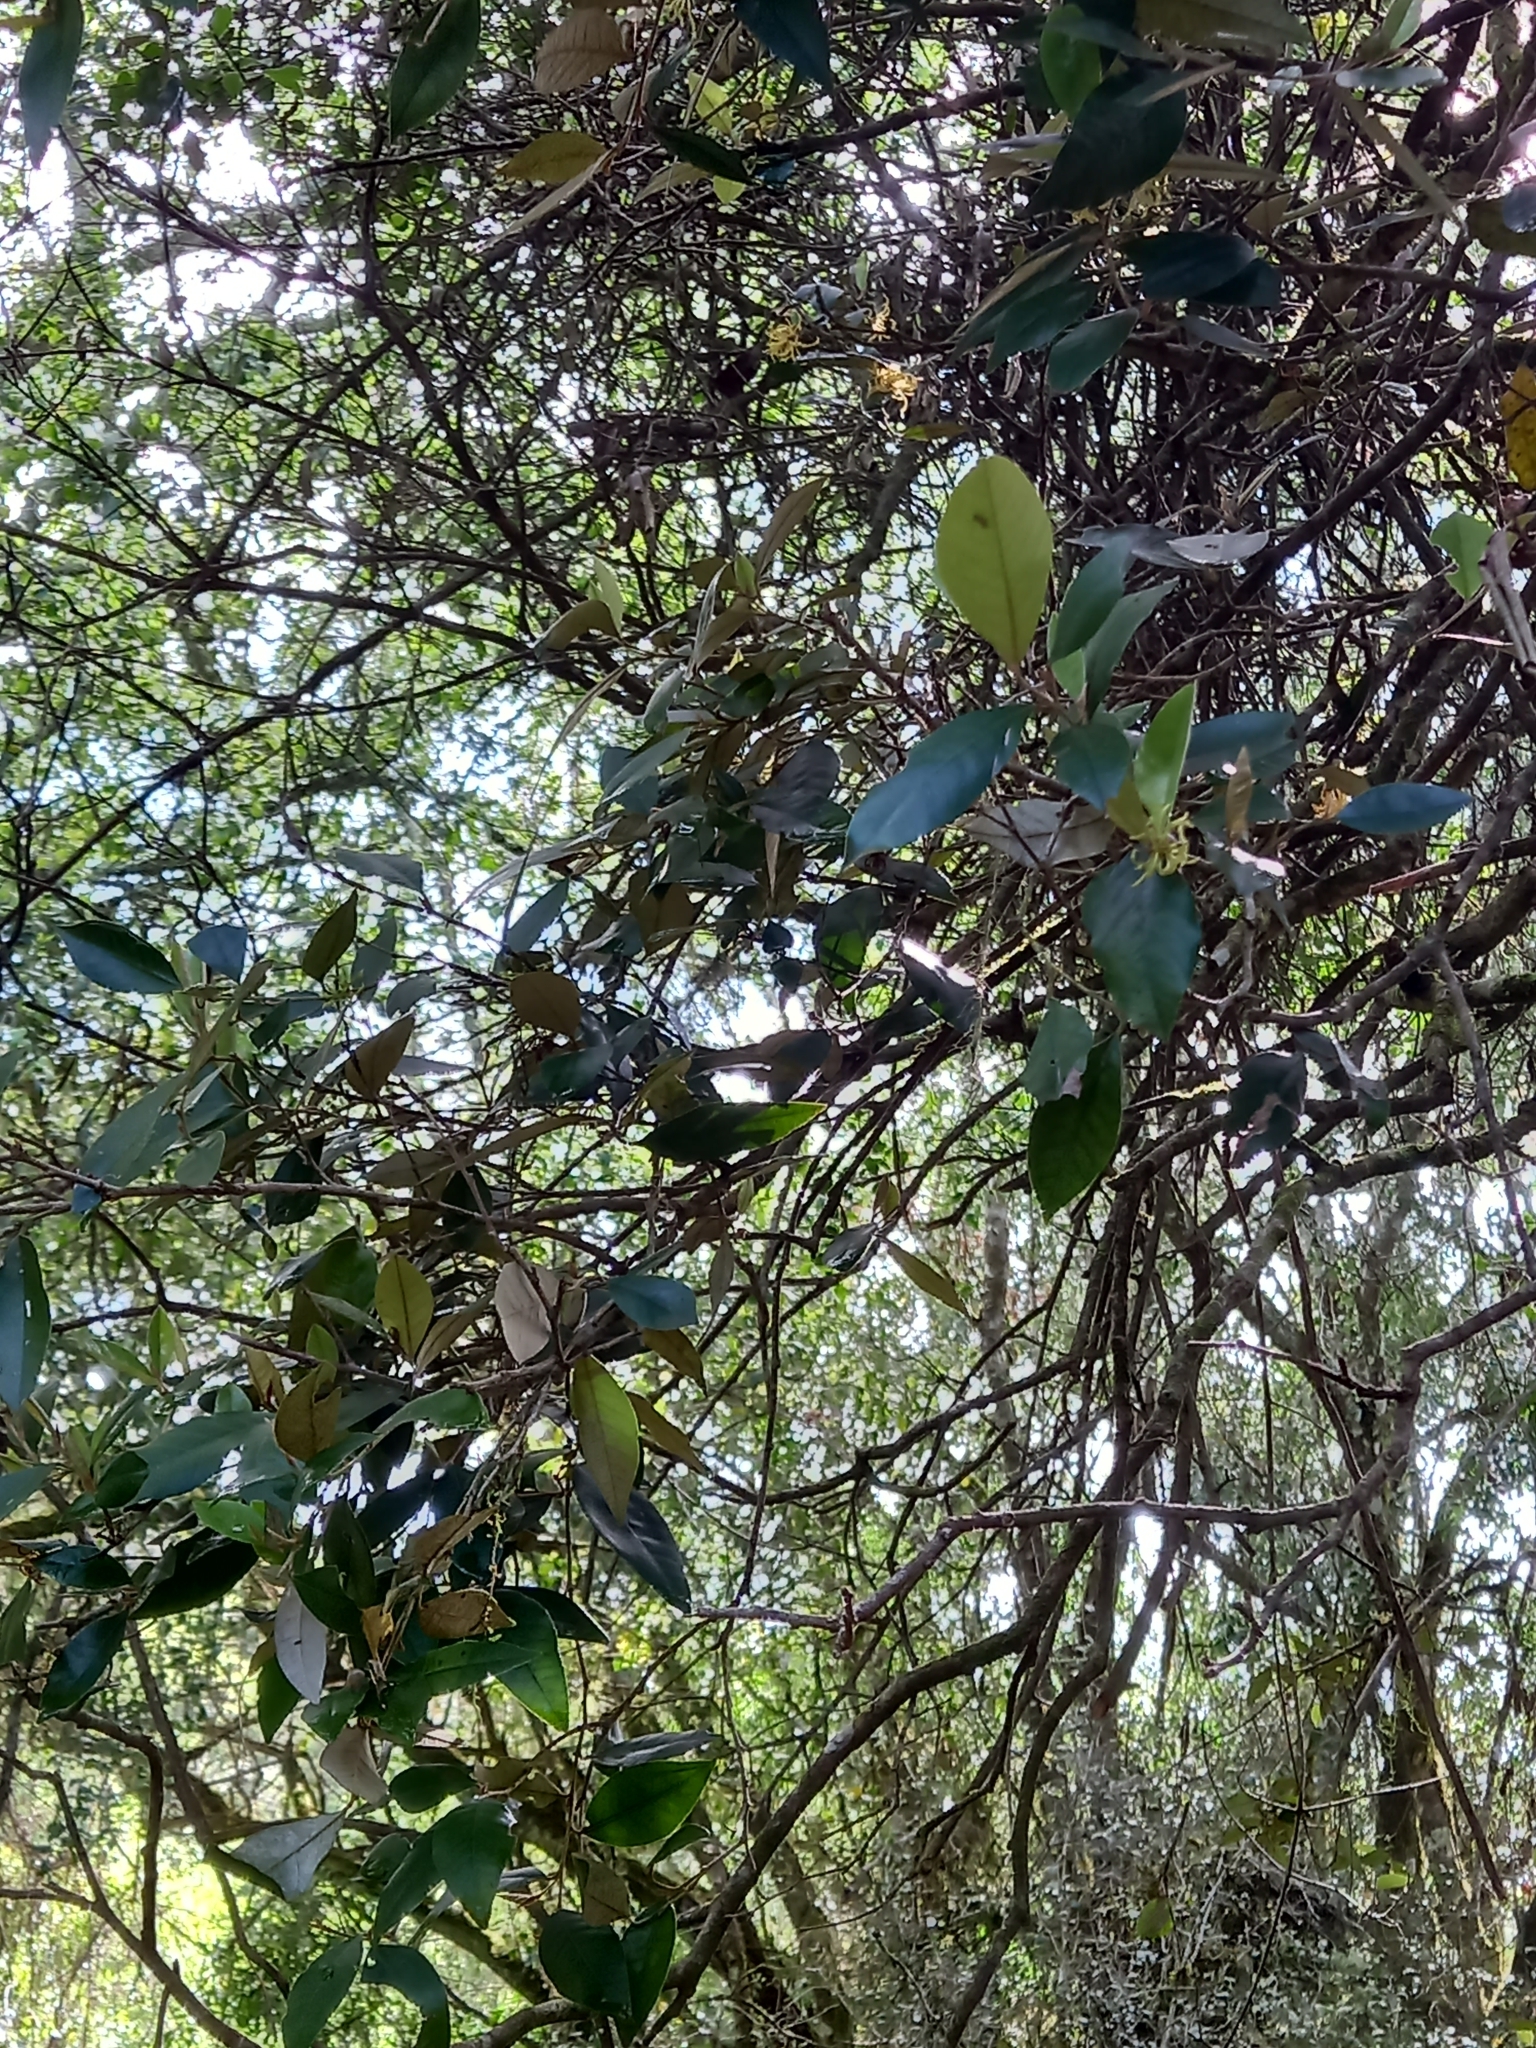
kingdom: Plantae
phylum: Tracheophyta
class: Magnoliopsida
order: Saxifragales
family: Hamamelidaceae
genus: Trichocladus
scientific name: Trichocladus ellipticus
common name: White witch-hazel
